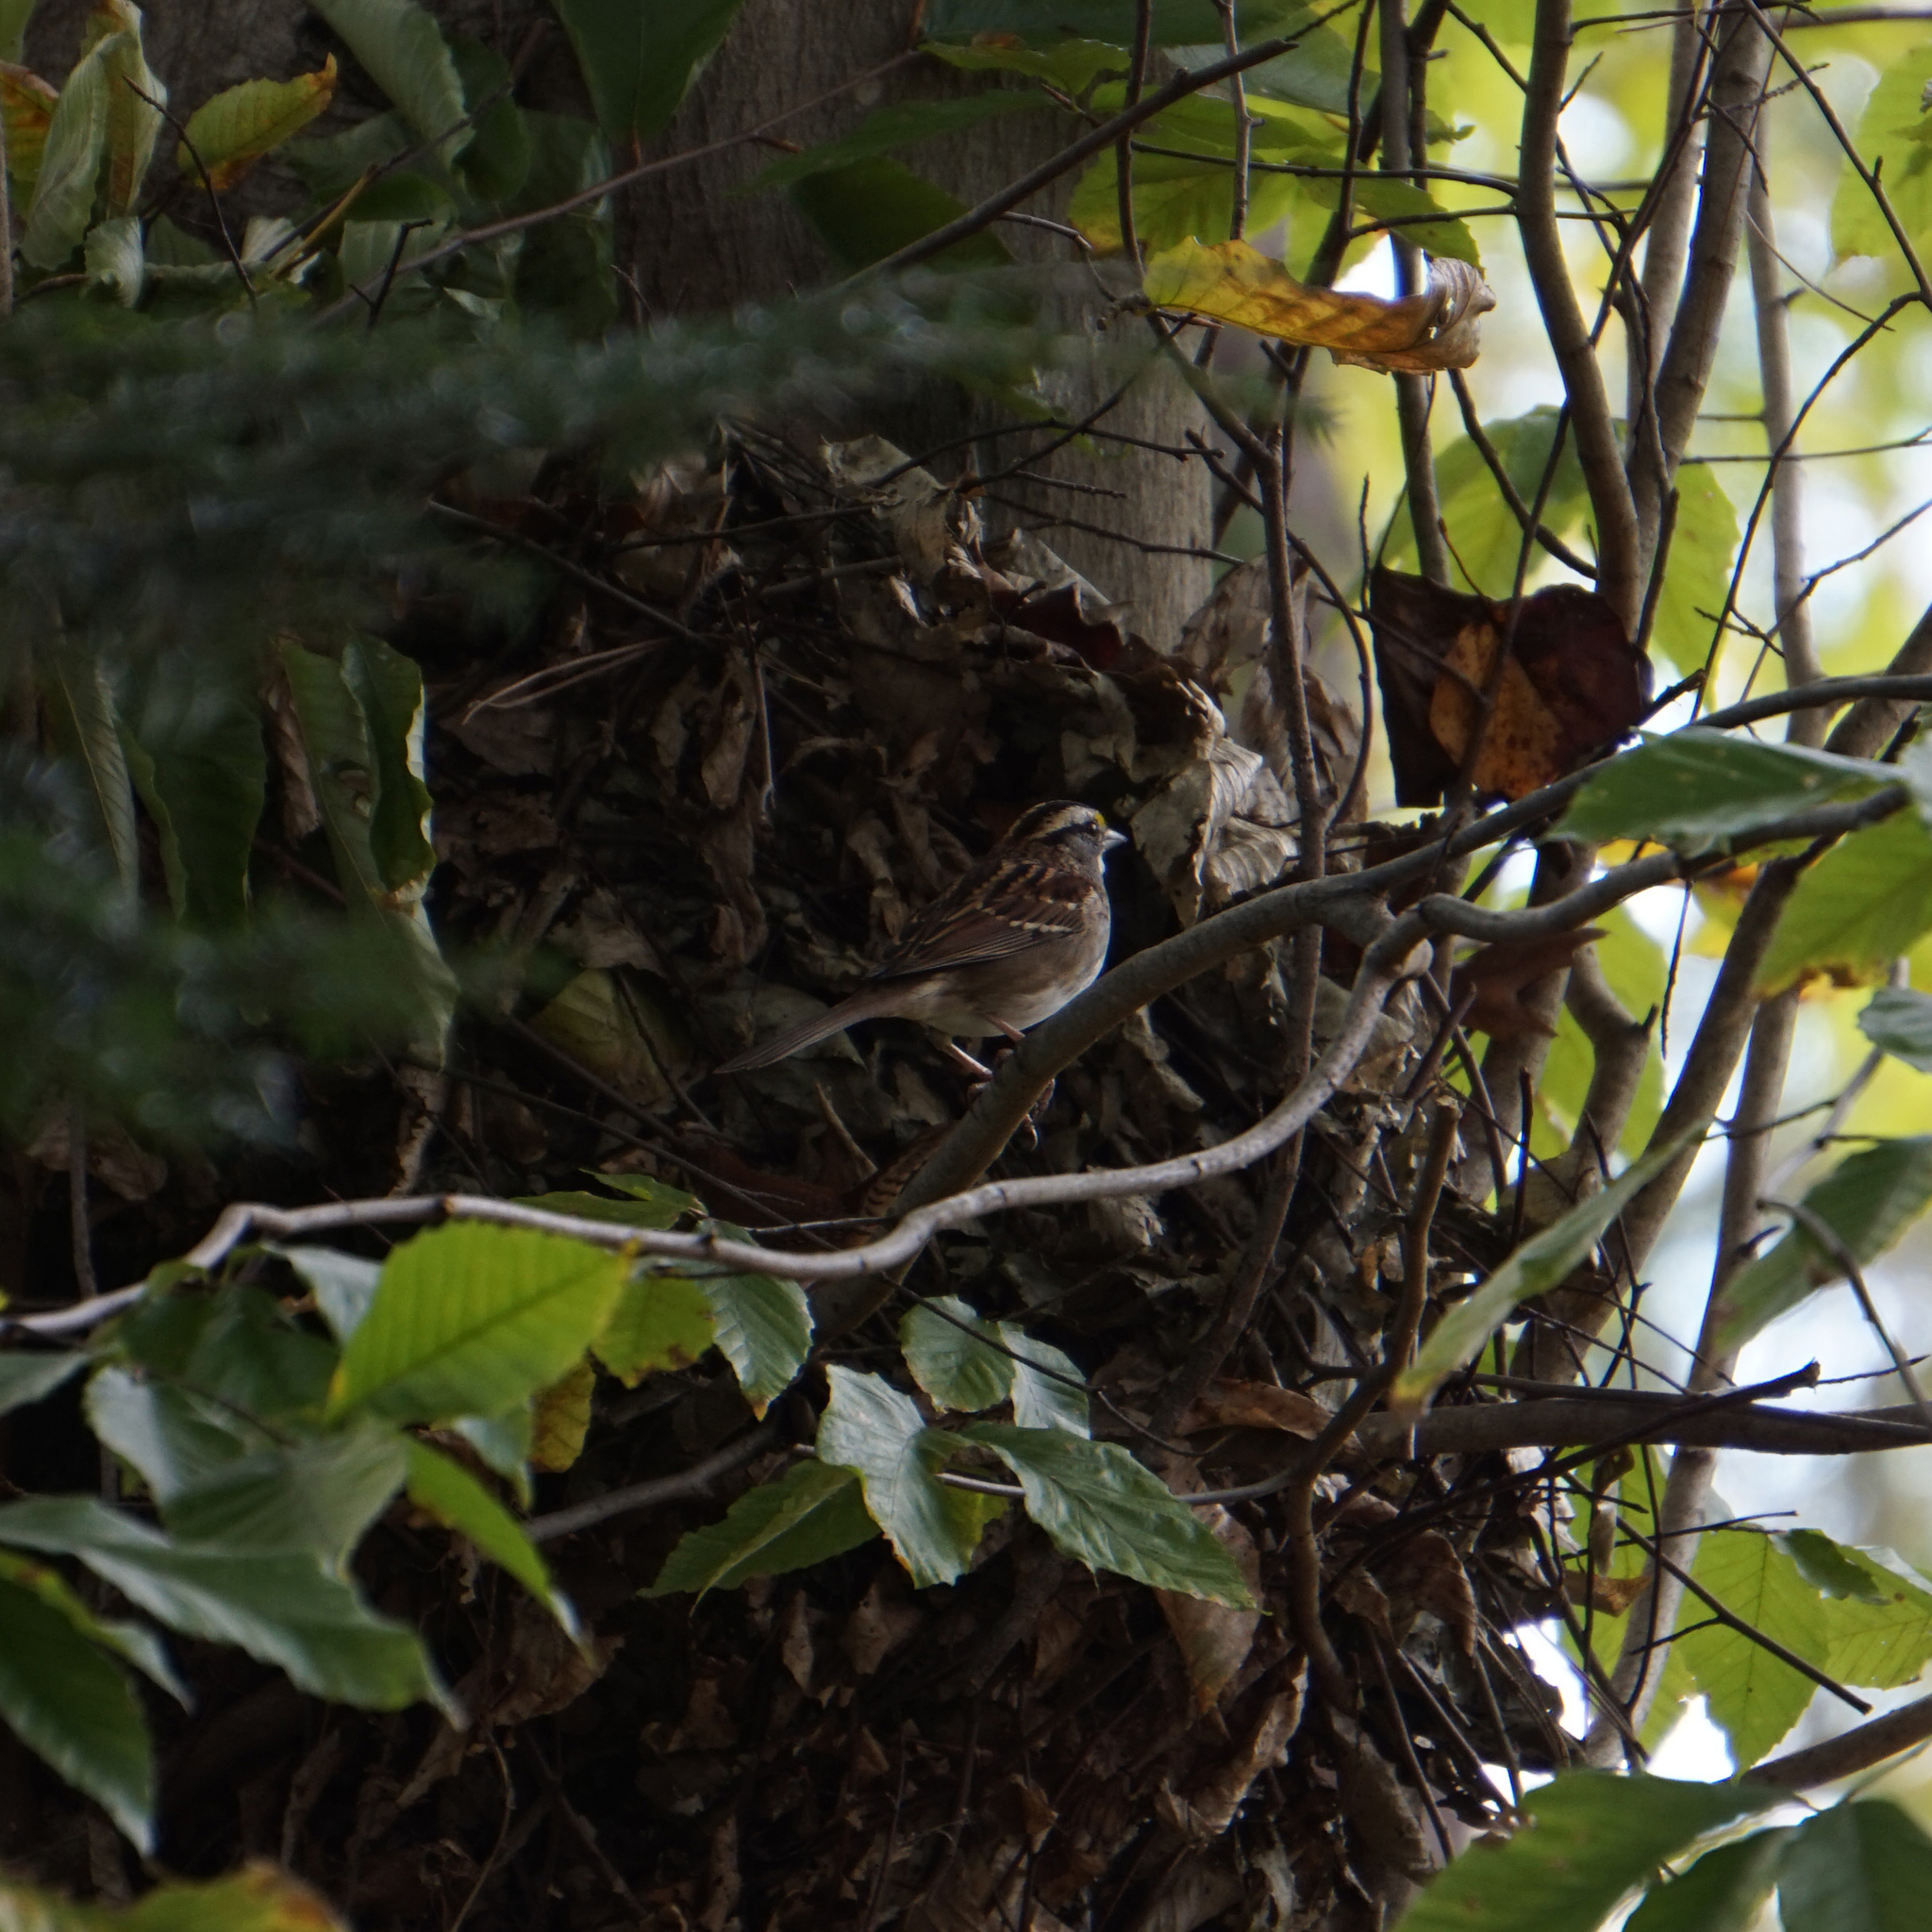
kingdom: Animalia
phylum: Chordata
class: Aves
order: Passeriformes
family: Passerellidae
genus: Zonotrichia
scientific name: Zonotrichia albicollis
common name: White-throated sparrow
